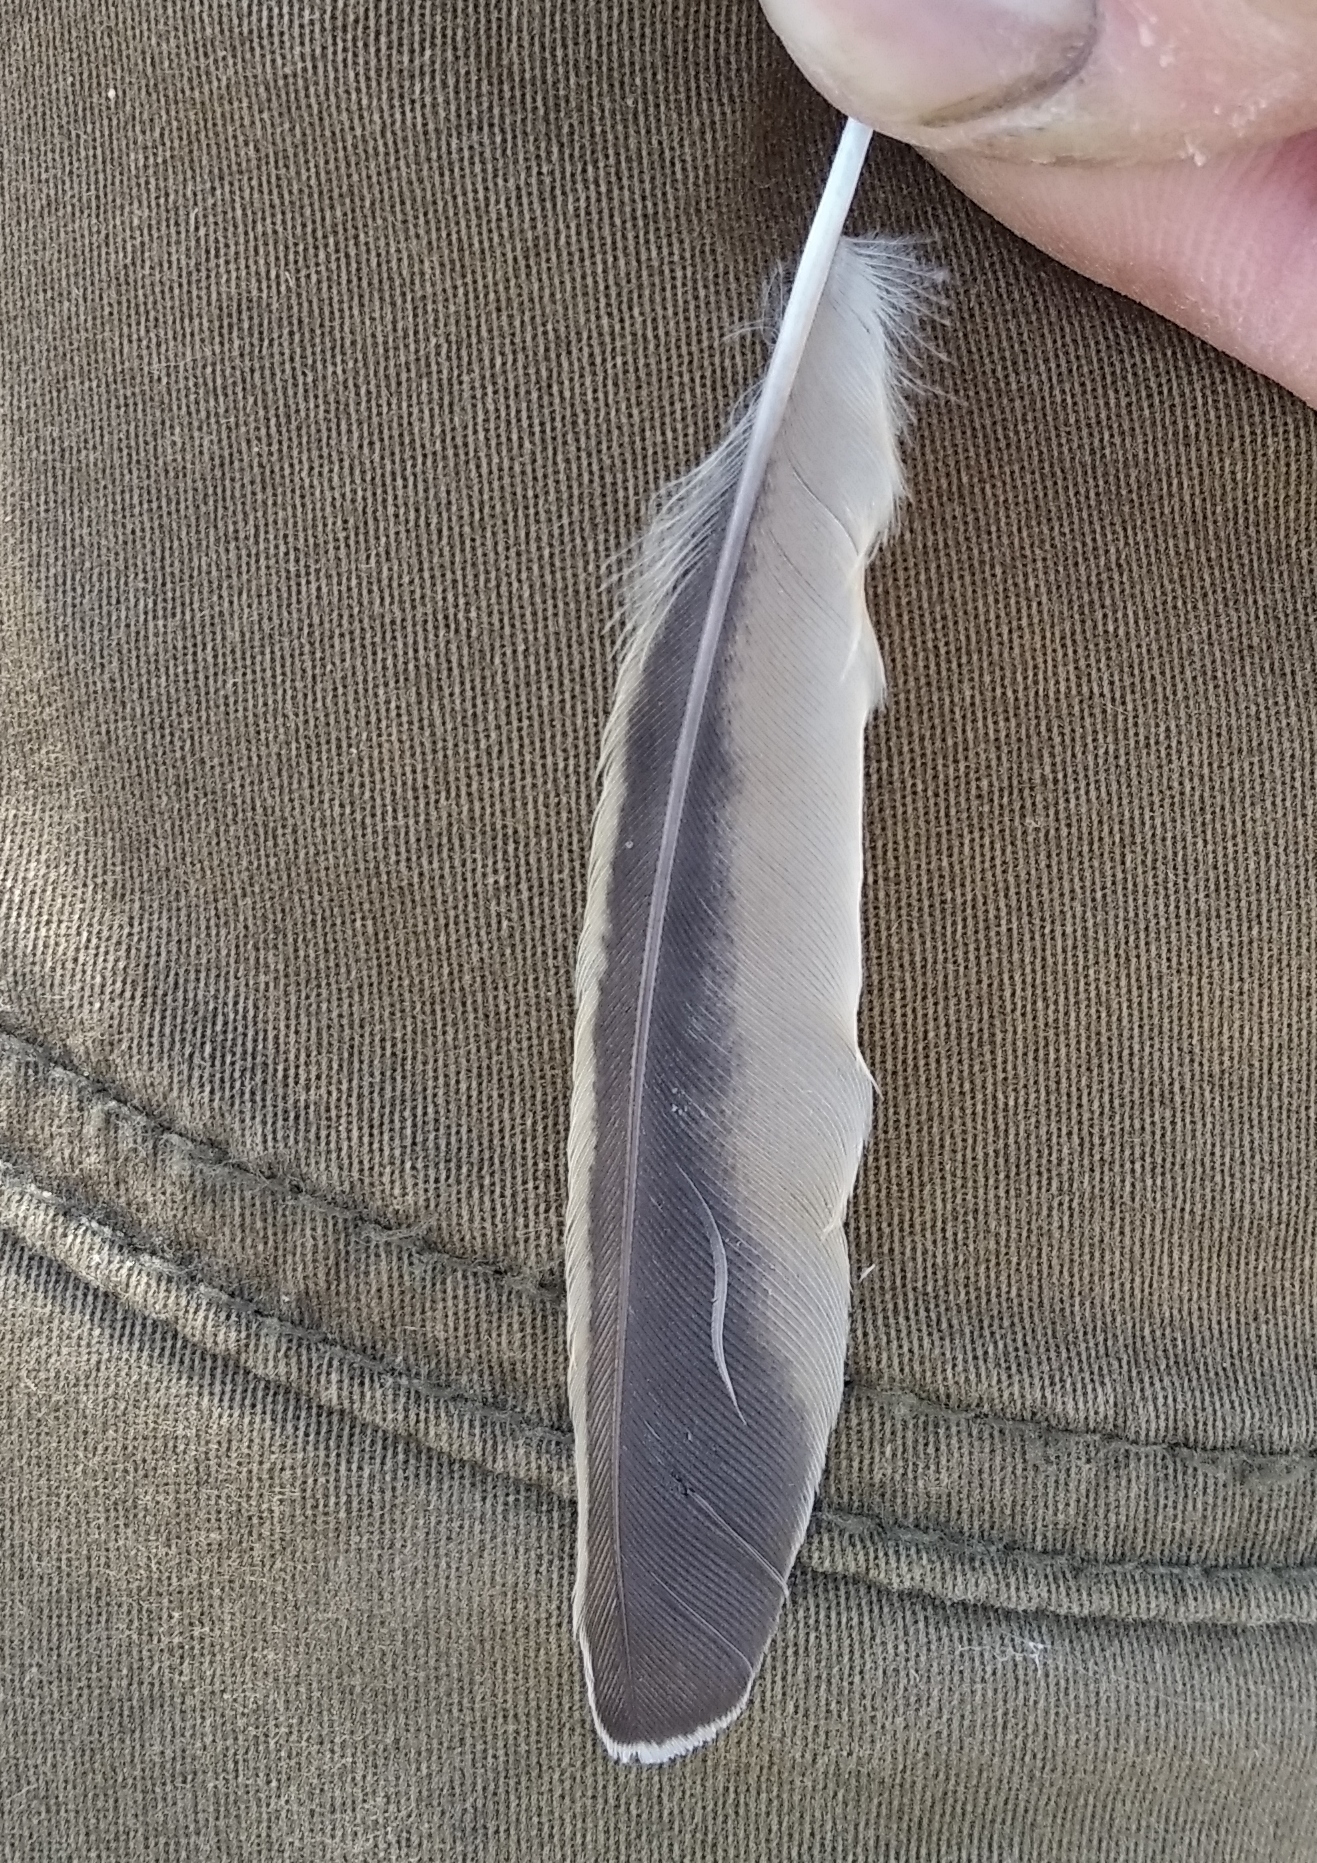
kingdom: Animalia
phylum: Chordata
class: Aves
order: Passeriformes
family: Alaudidae
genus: Galerida
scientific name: Galerida cristata
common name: Crested lark
